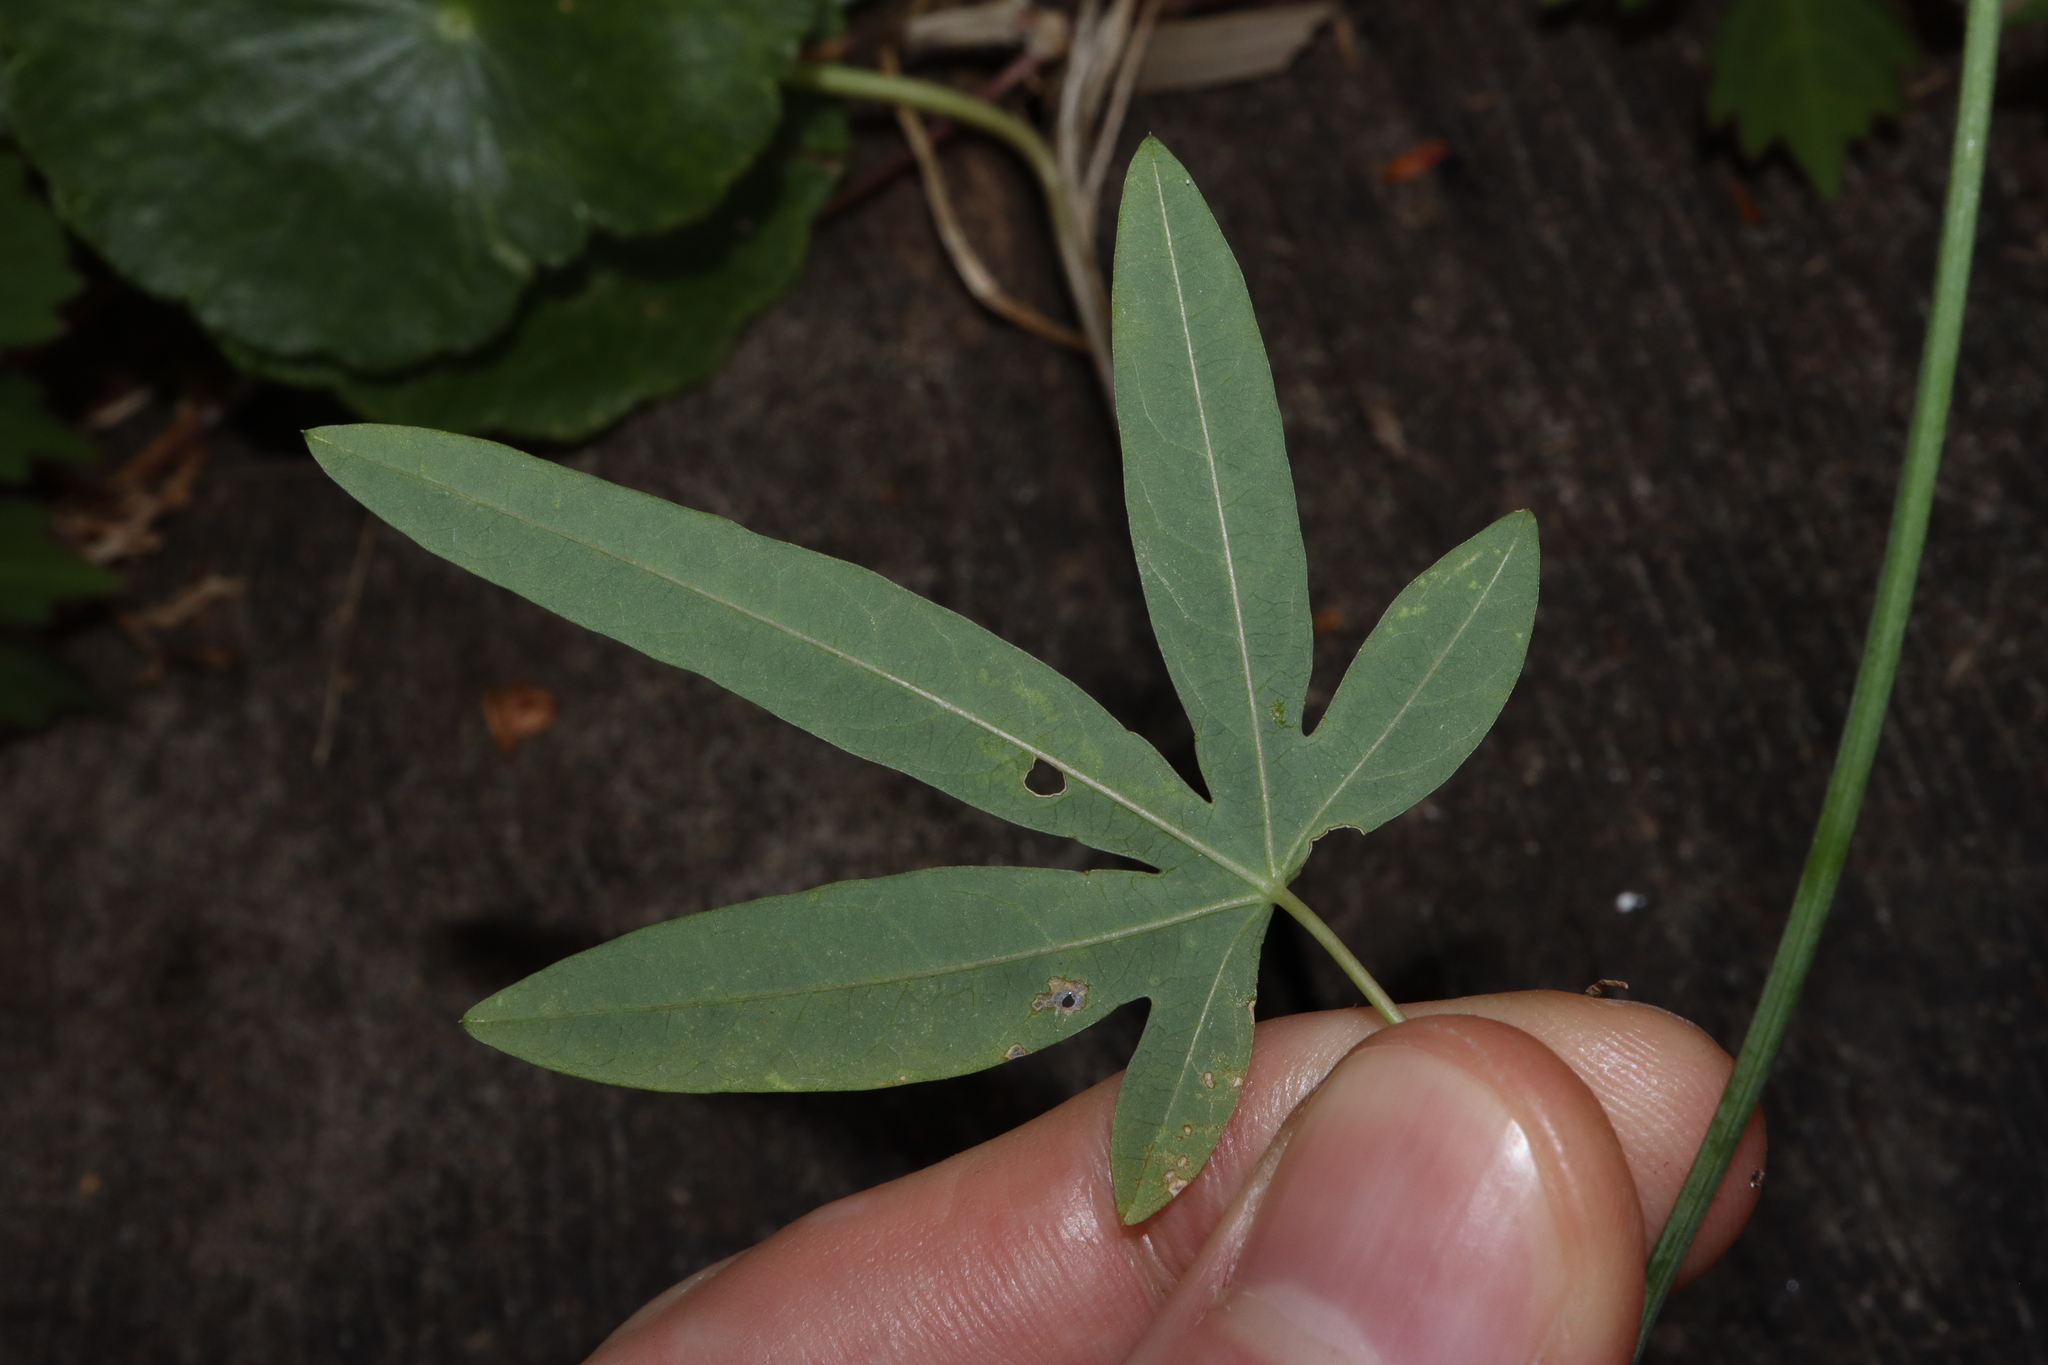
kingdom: Plantae
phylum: Tracheophyta
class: Magnoliopsida
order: Malpighiales
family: Passifloraceae
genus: Passiflora
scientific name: Passiflora caerulea
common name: Blue passionflower
